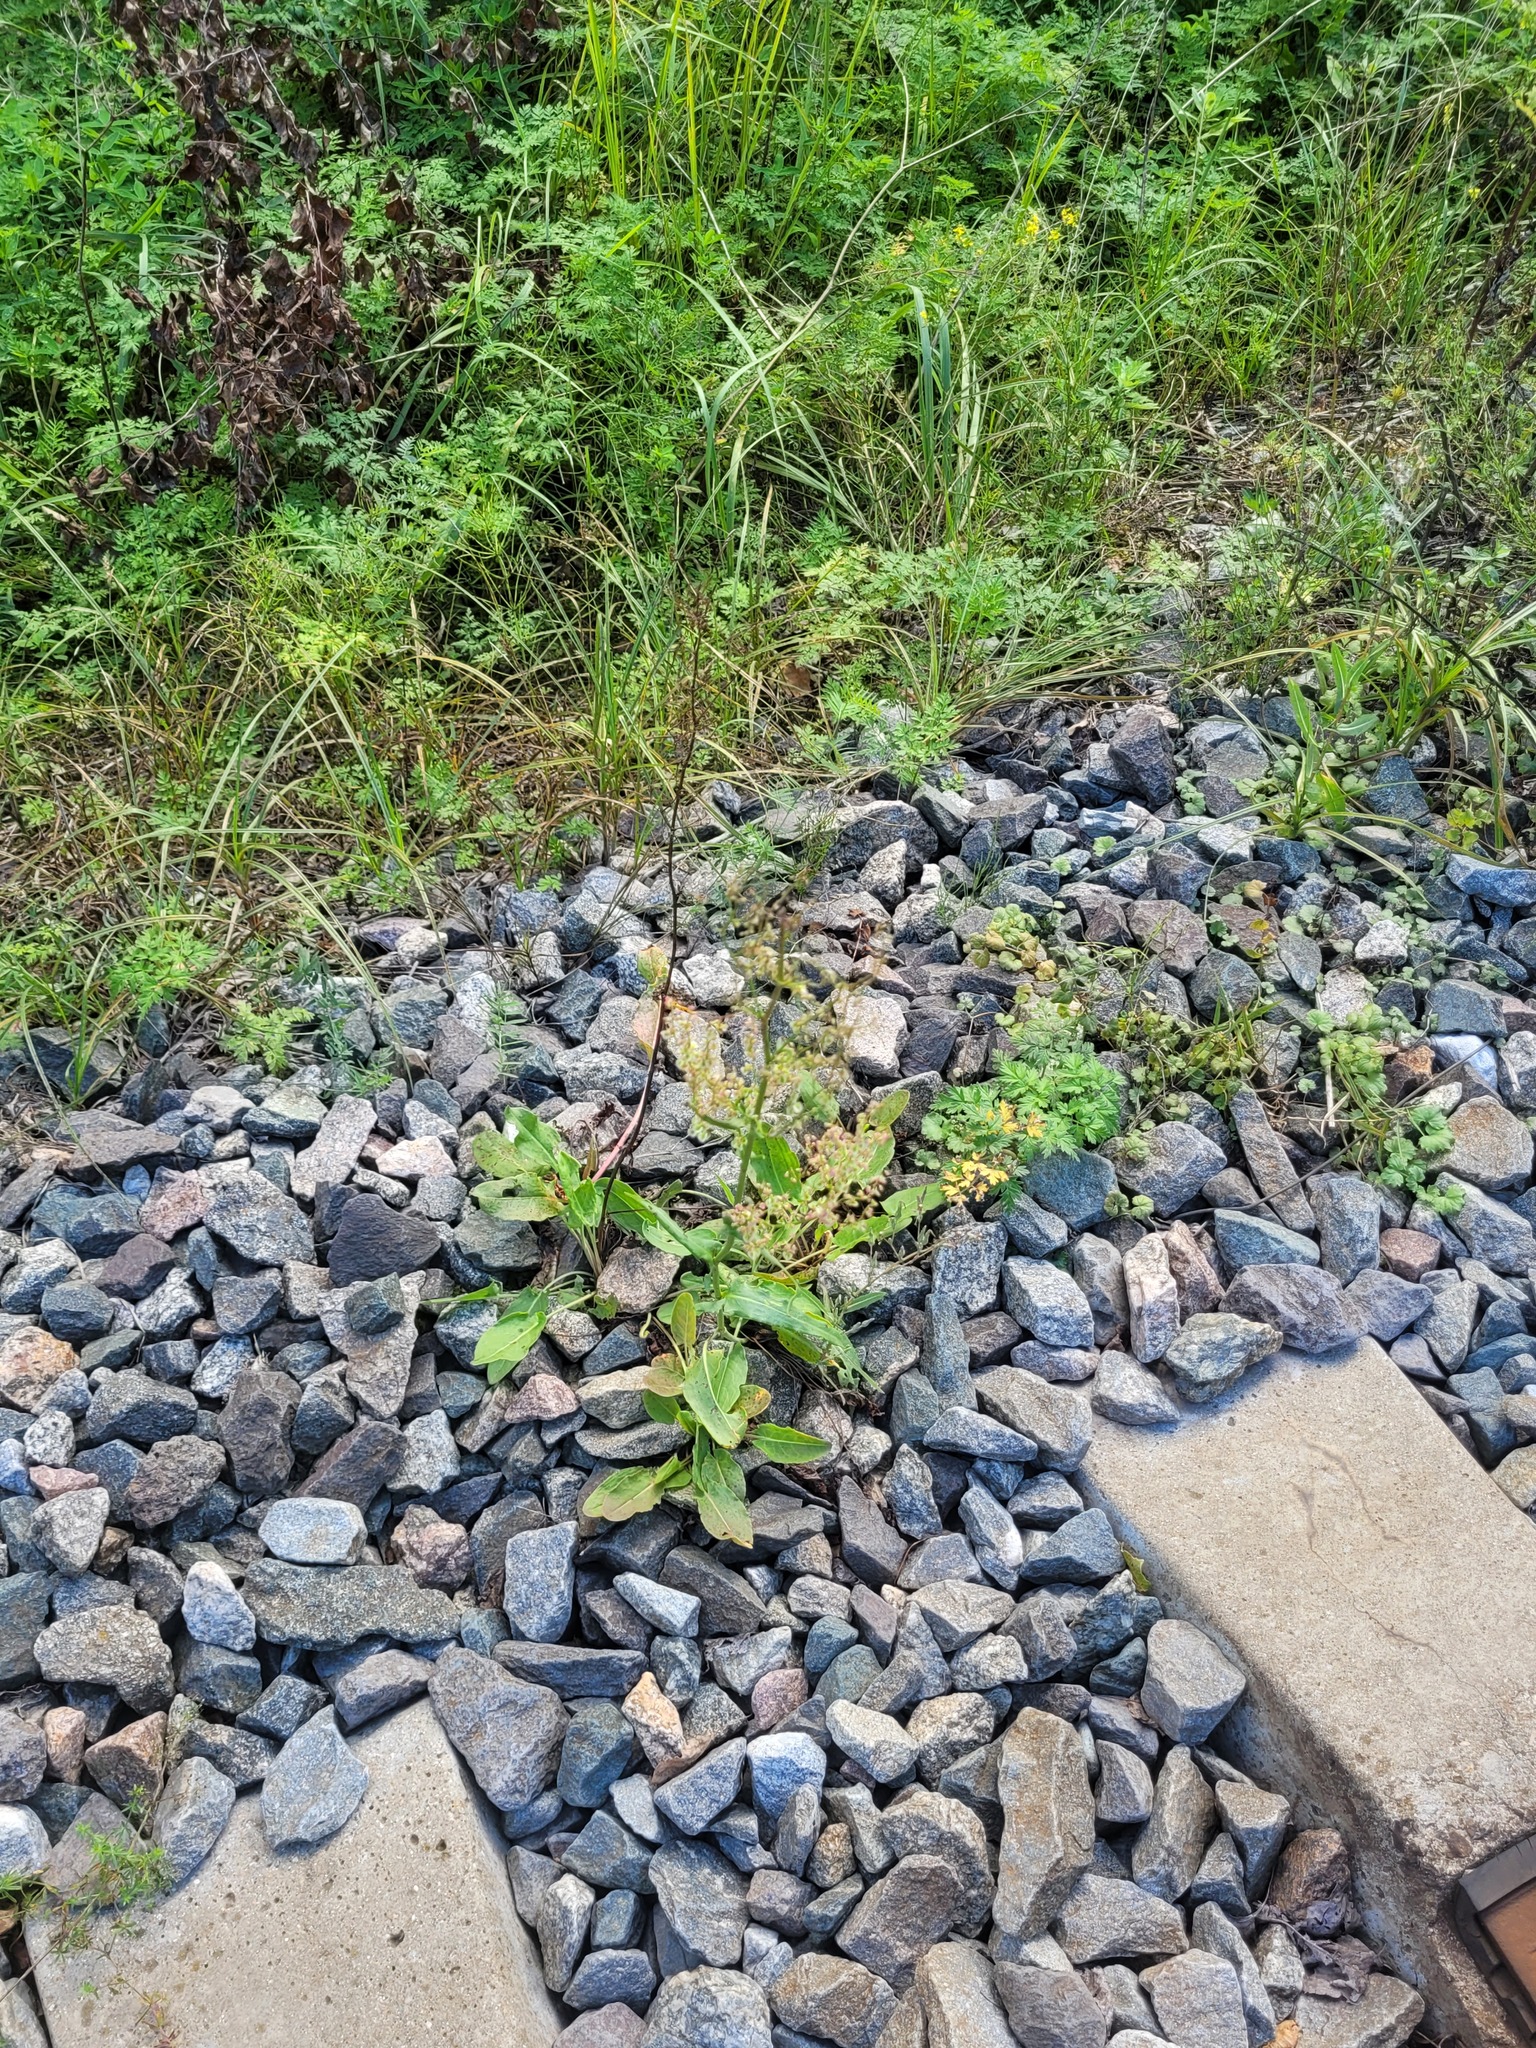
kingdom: Plantae
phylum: Tracheophyta
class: Magnoliopsida
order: Caryophyllales
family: Polygonaceae
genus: Rumex
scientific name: Rumex thyrsiflorus
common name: Garden sorrel
